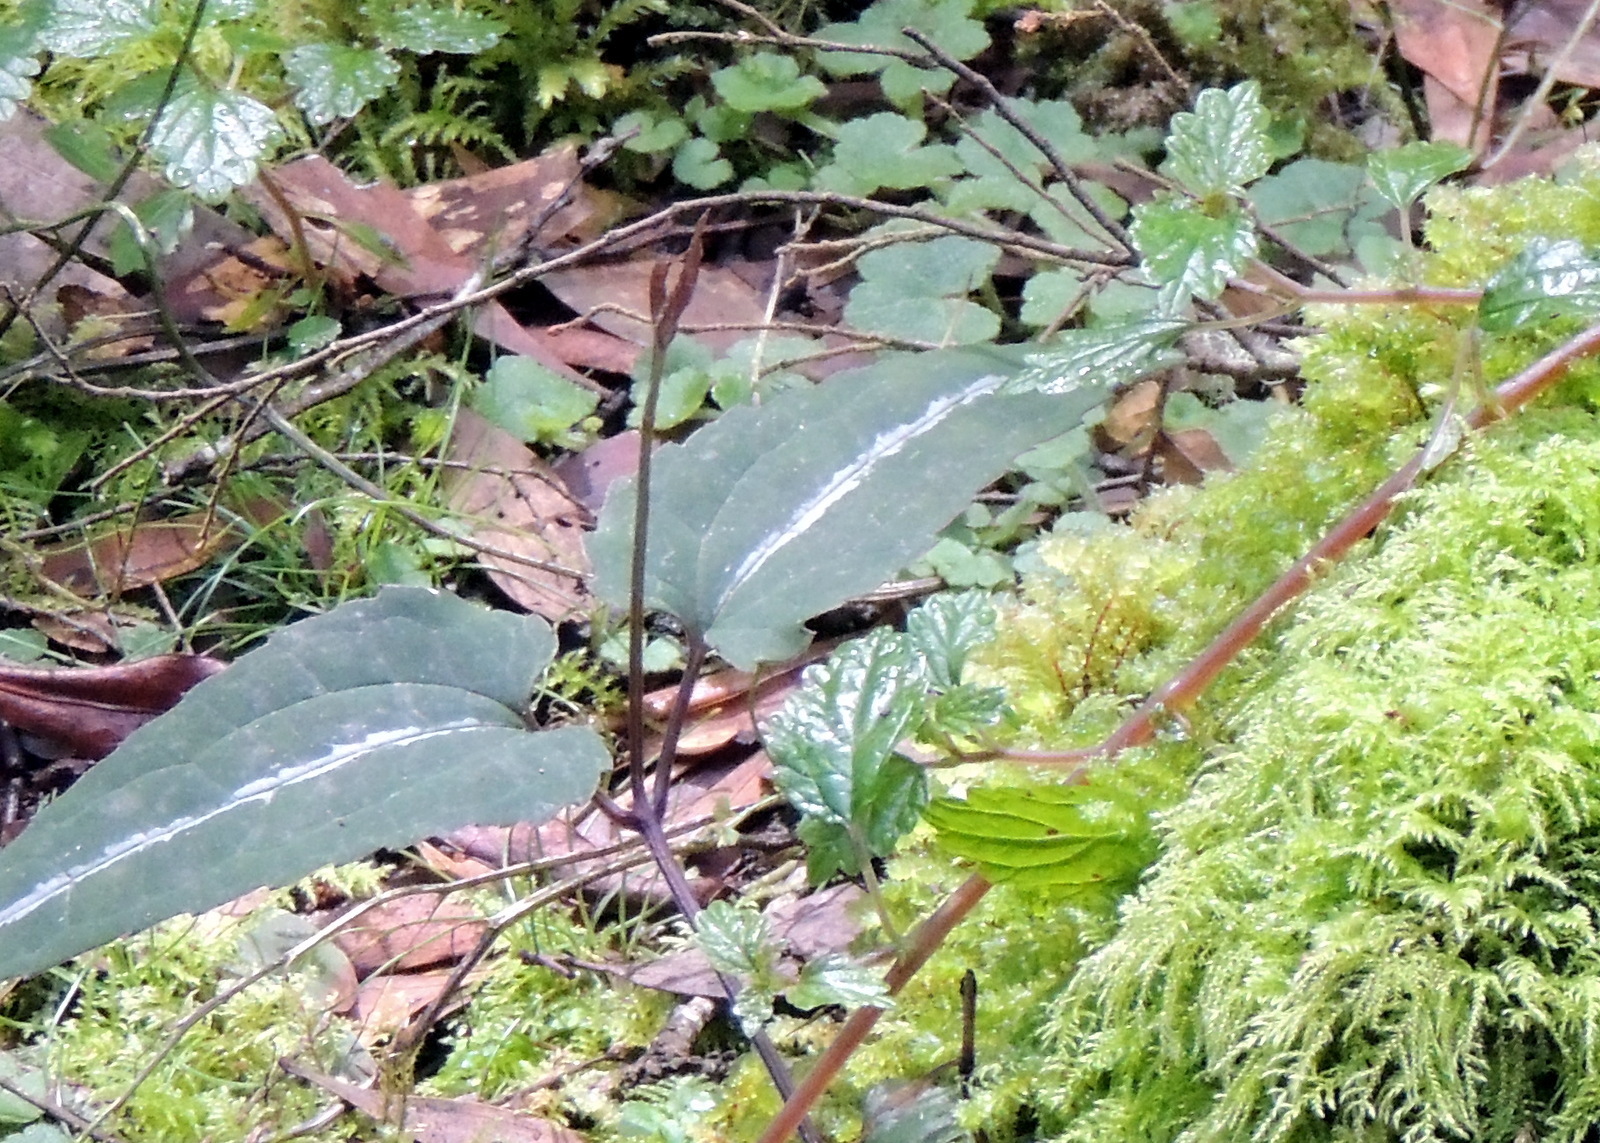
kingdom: Plantae
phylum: Tracheophyta
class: Magnoliopsida
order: Ranunculales
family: Ranunculaceae
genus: Clematis
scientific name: Clematis aristata
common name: Mountain clematis
